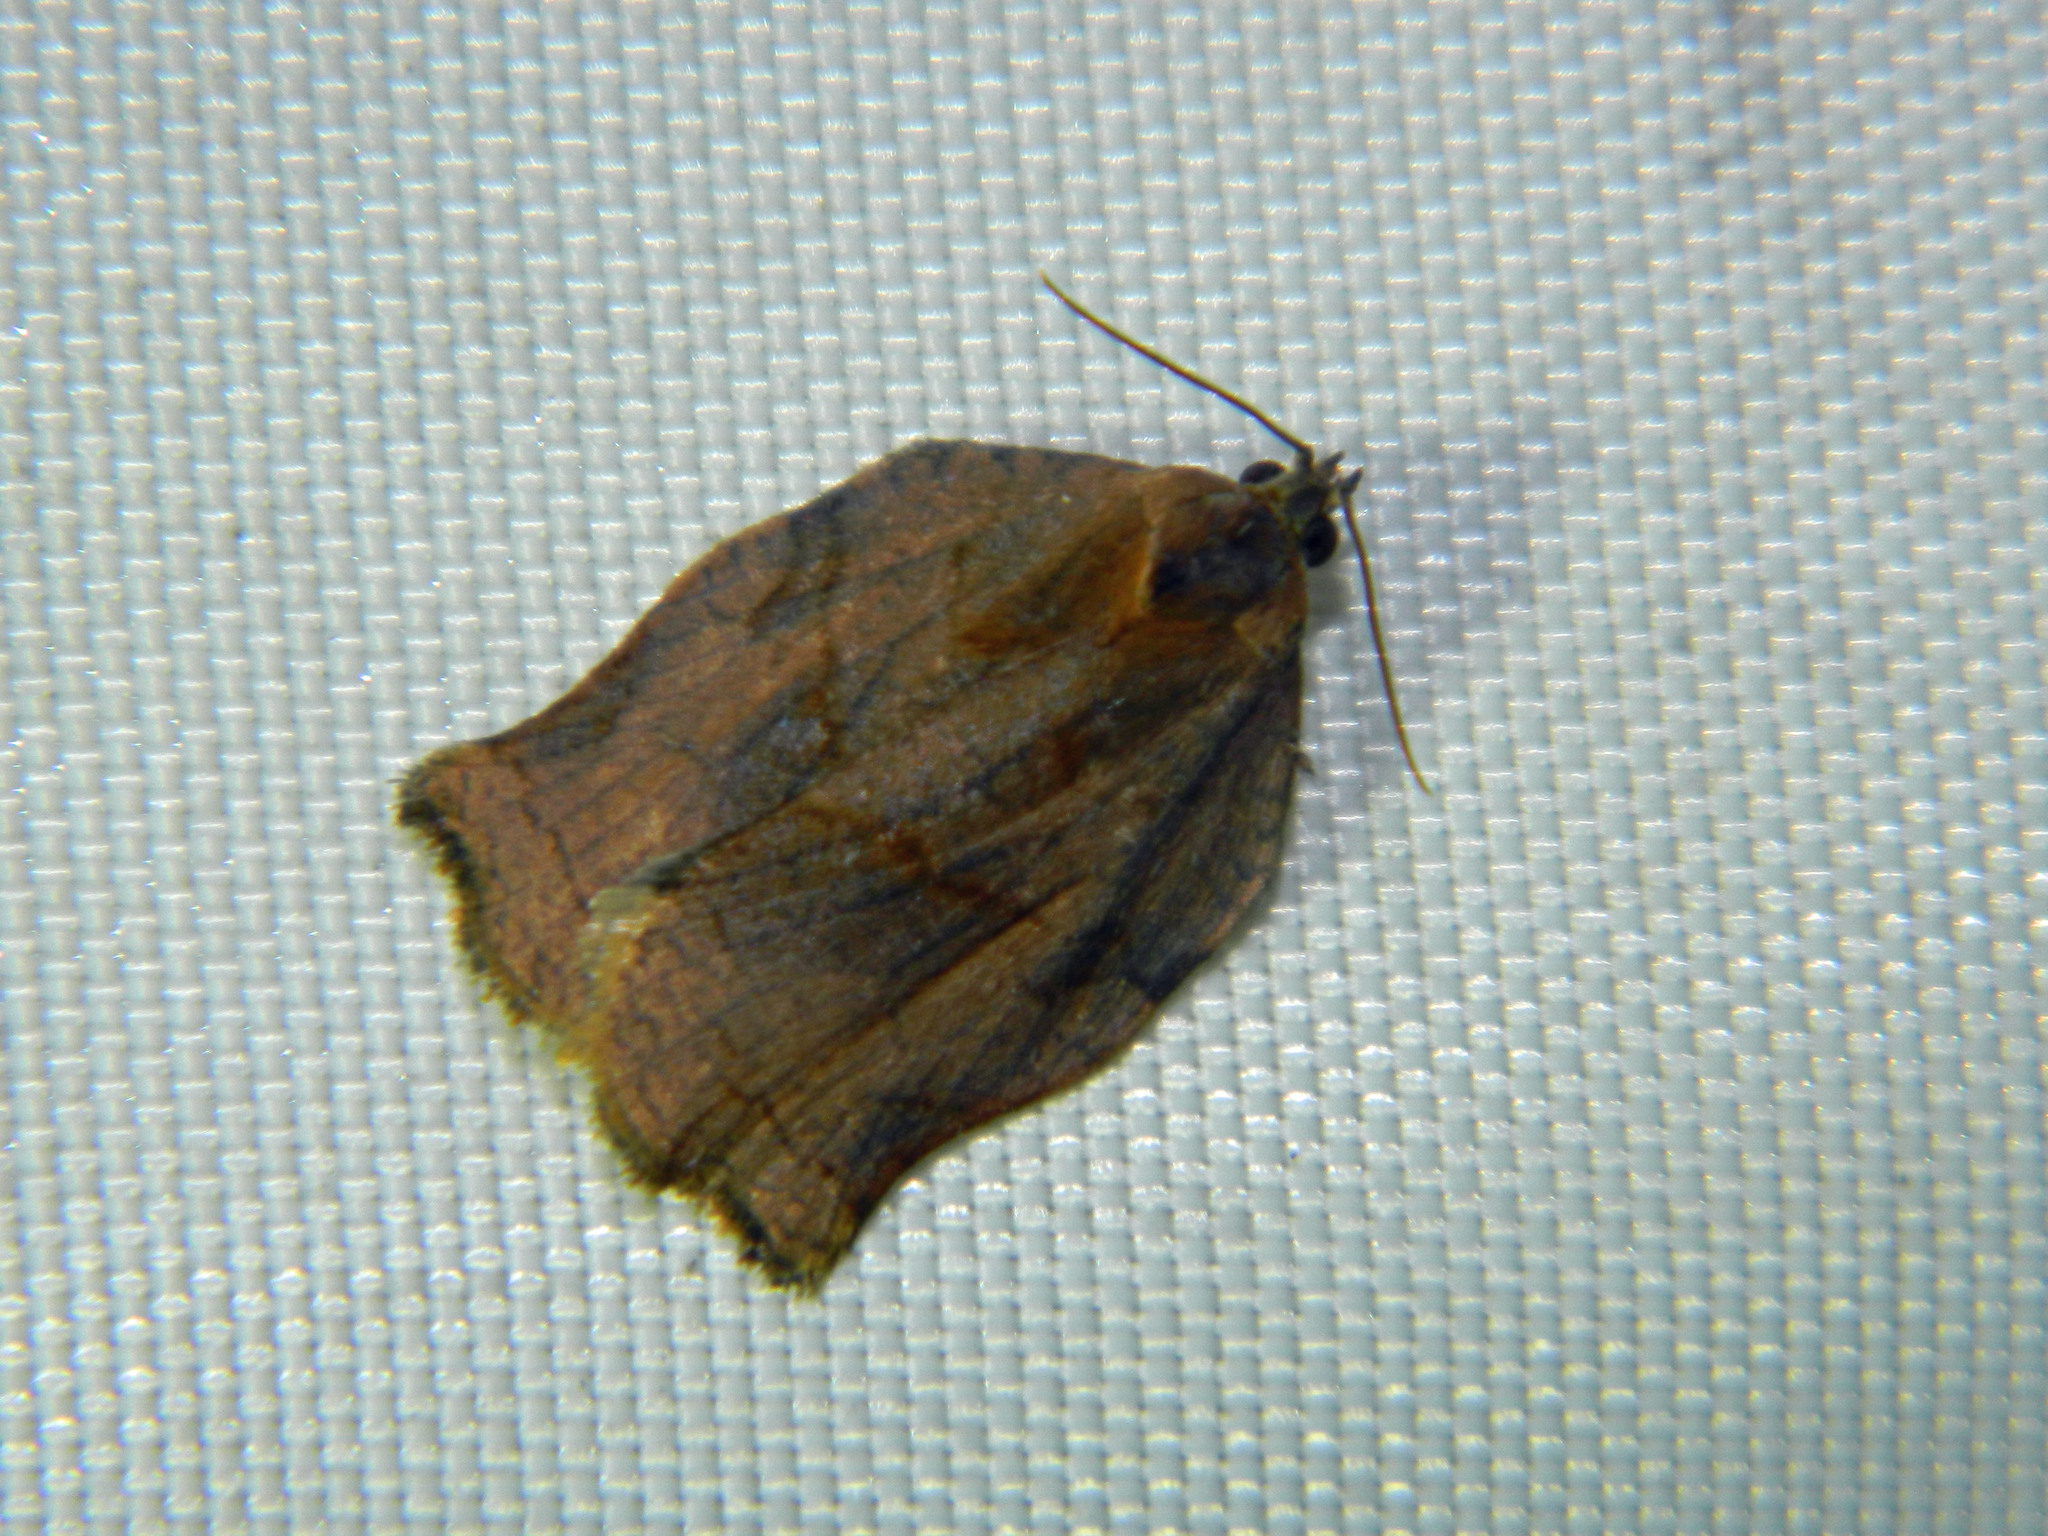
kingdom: Animalia
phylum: Arthropoda
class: Insecta
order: Lepidoptera
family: Tortricidae
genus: Archips
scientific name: Archips purpurana
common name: Omnivorous leafroller
